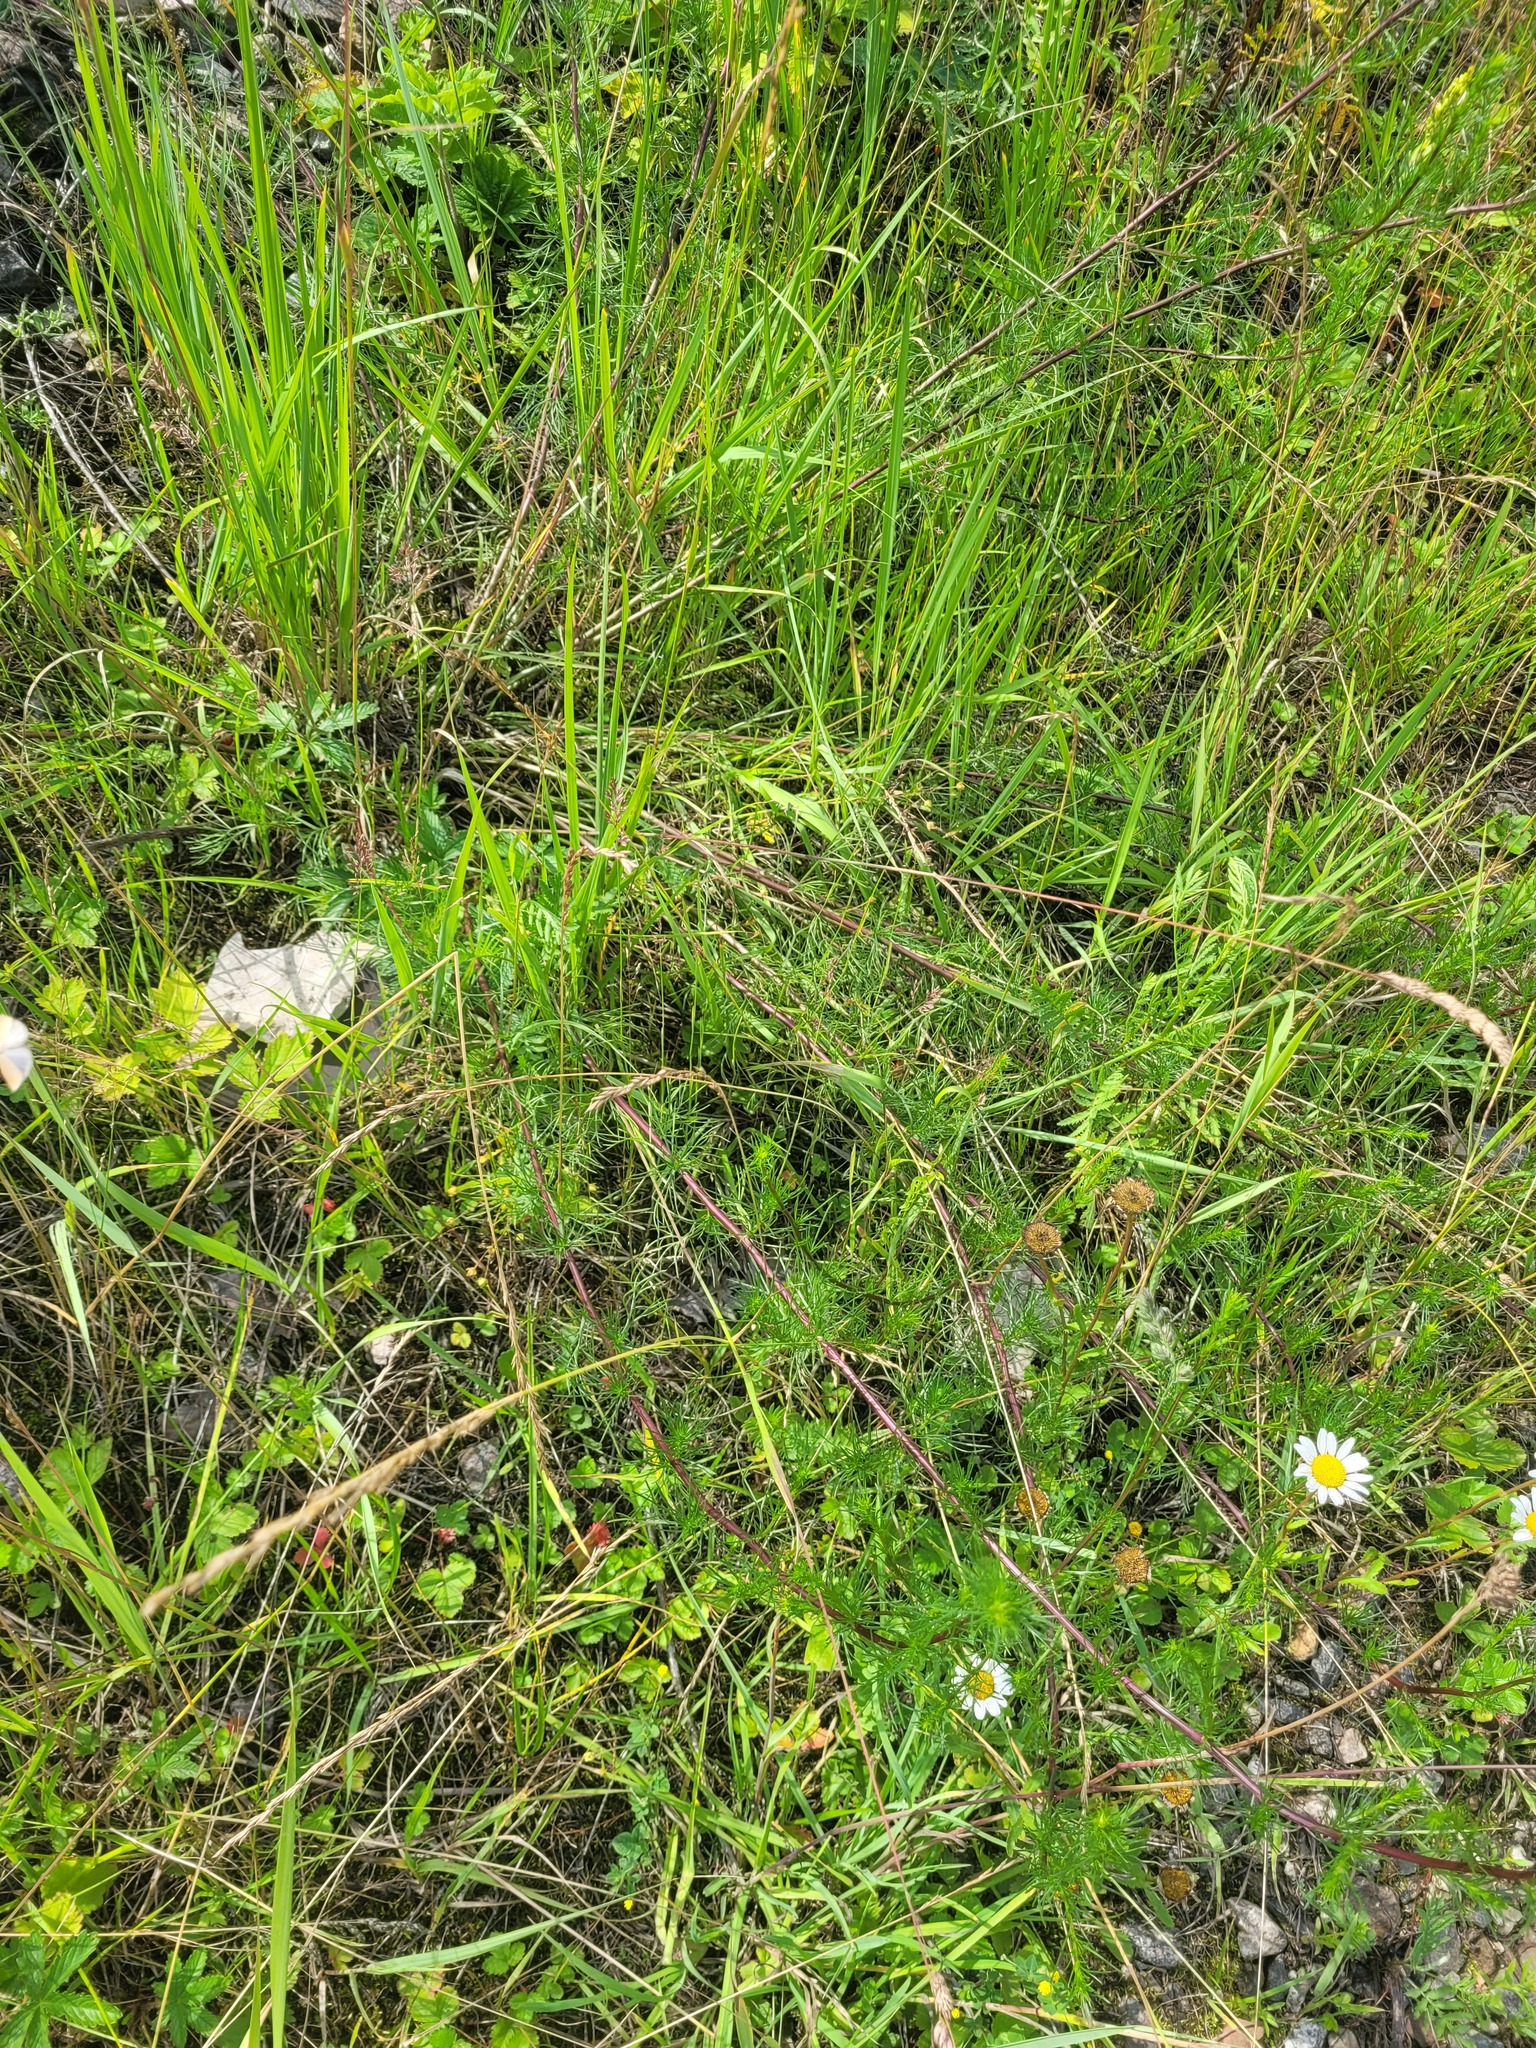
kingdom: Plantae
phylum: Tracheophyta
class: Magnoliopsida
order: Asterales
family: Asteraceae
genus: Artemisia
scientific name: Artemisia campestris
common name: Field wormwood
